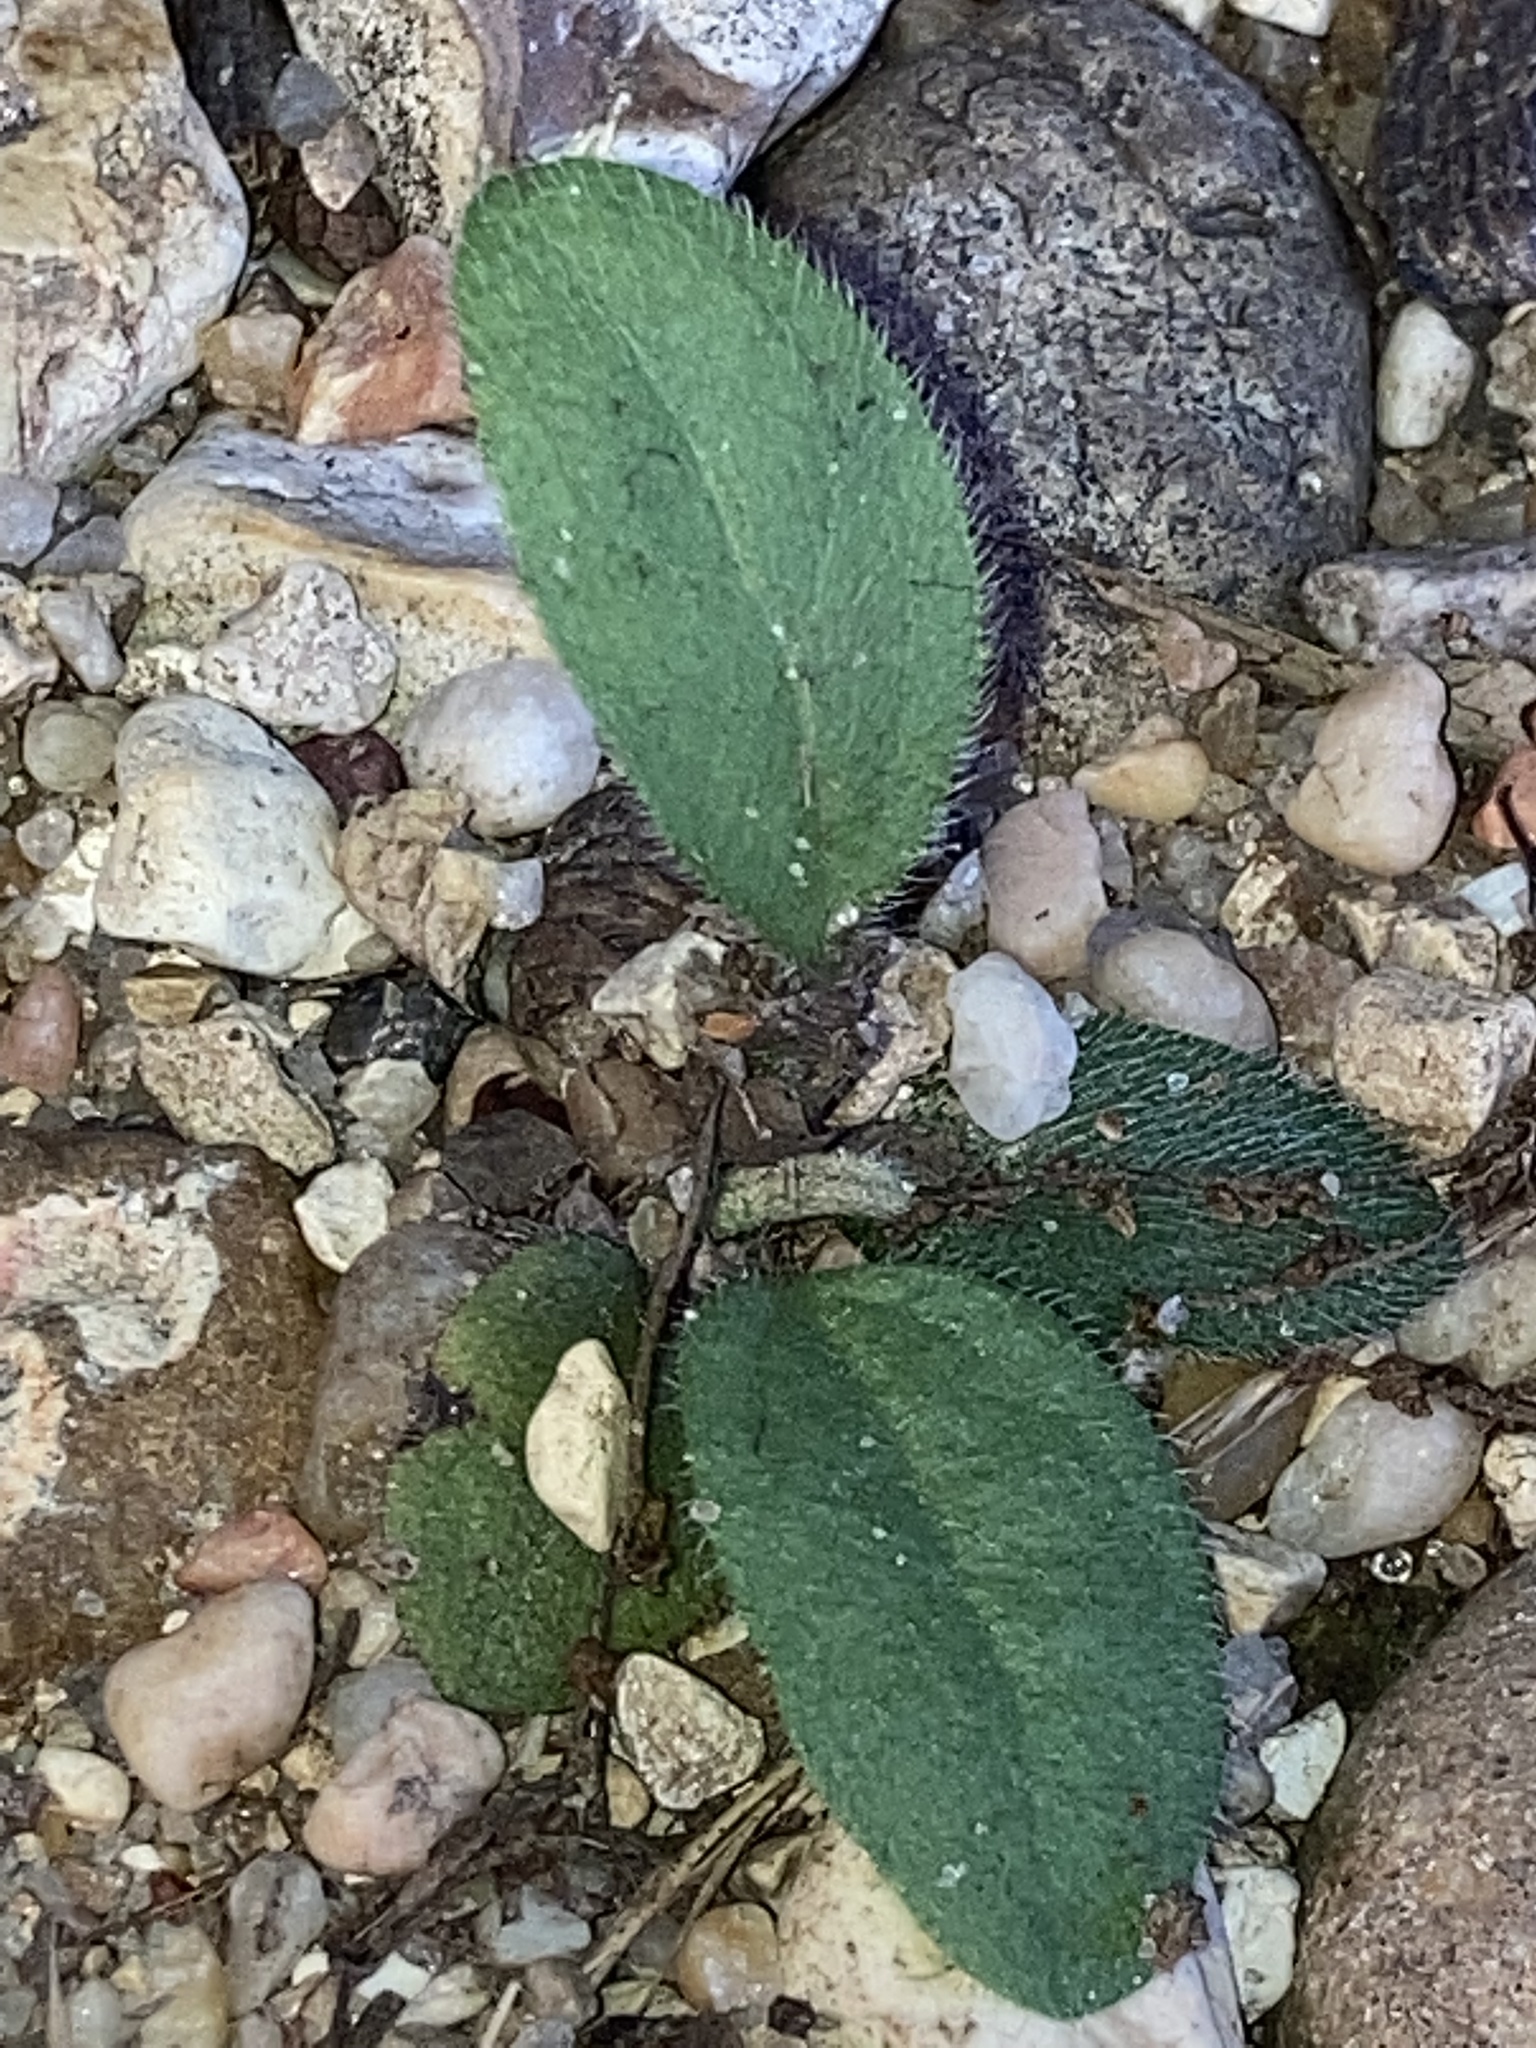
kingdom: Plantae
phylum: Tracheophyta
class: Magnoliopsida
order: Asterales
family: Asteraceae
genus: Hieracium
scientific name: Hieracium gronovii
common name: Beaked hawkweed
